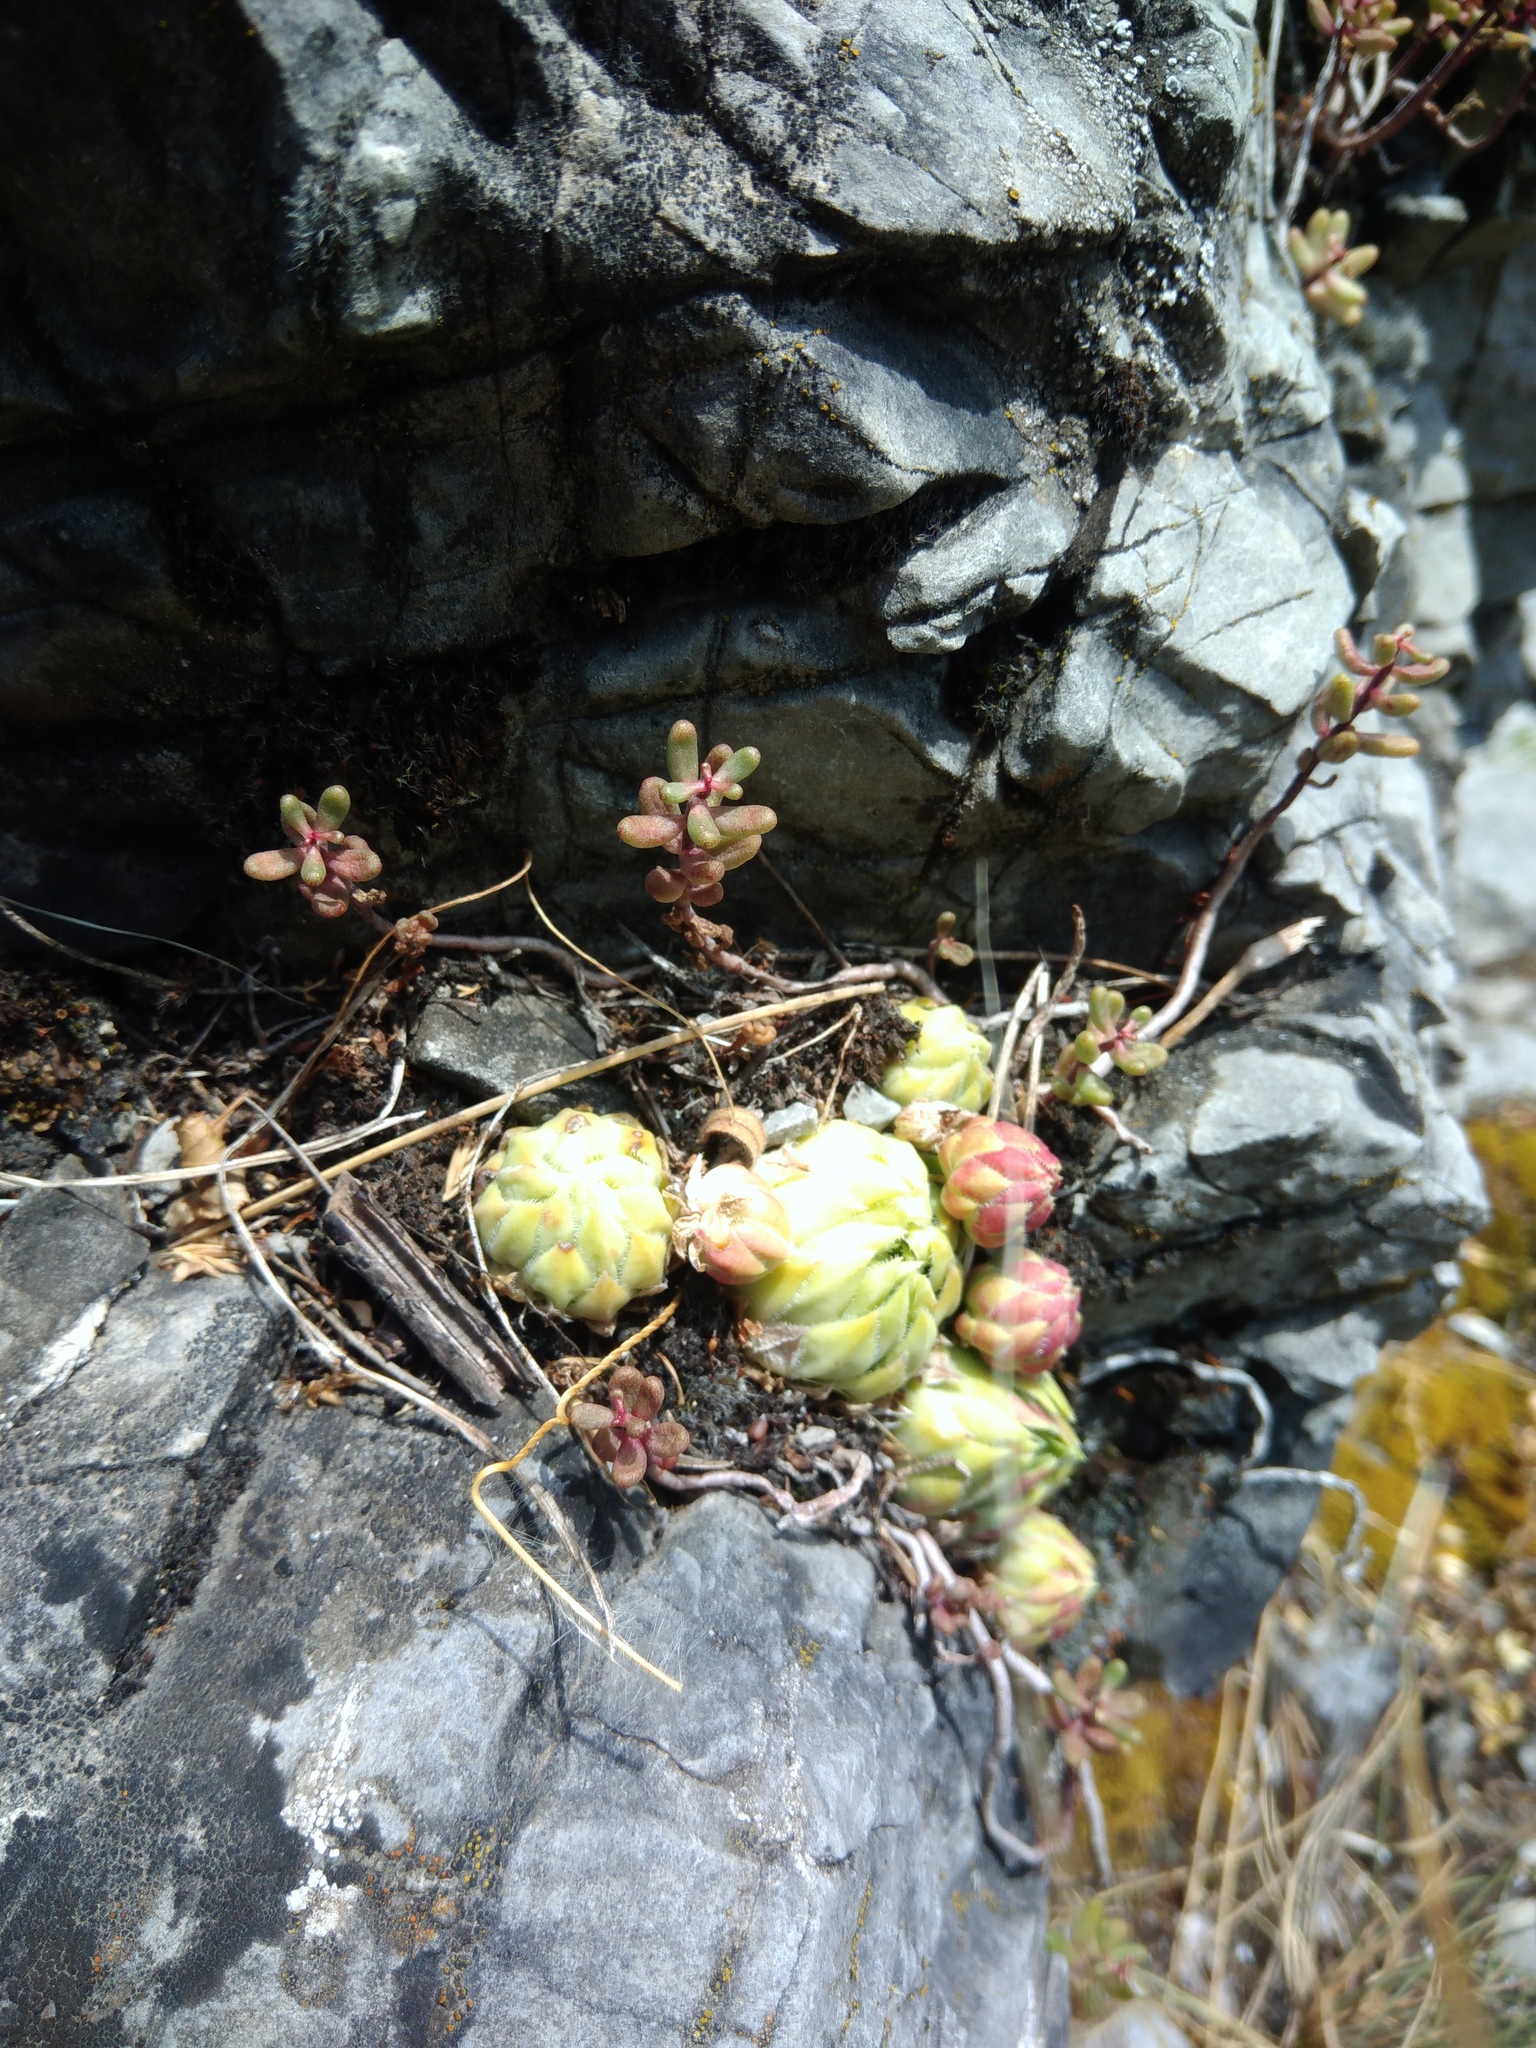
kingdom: Plantae
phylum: Tracheophyta
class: Magnoliopsida
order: Saxifragales
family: Crassulaceae
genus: Sempervivum
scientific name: Sempervivum globiferum
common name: Rolling hen-and-chicks
